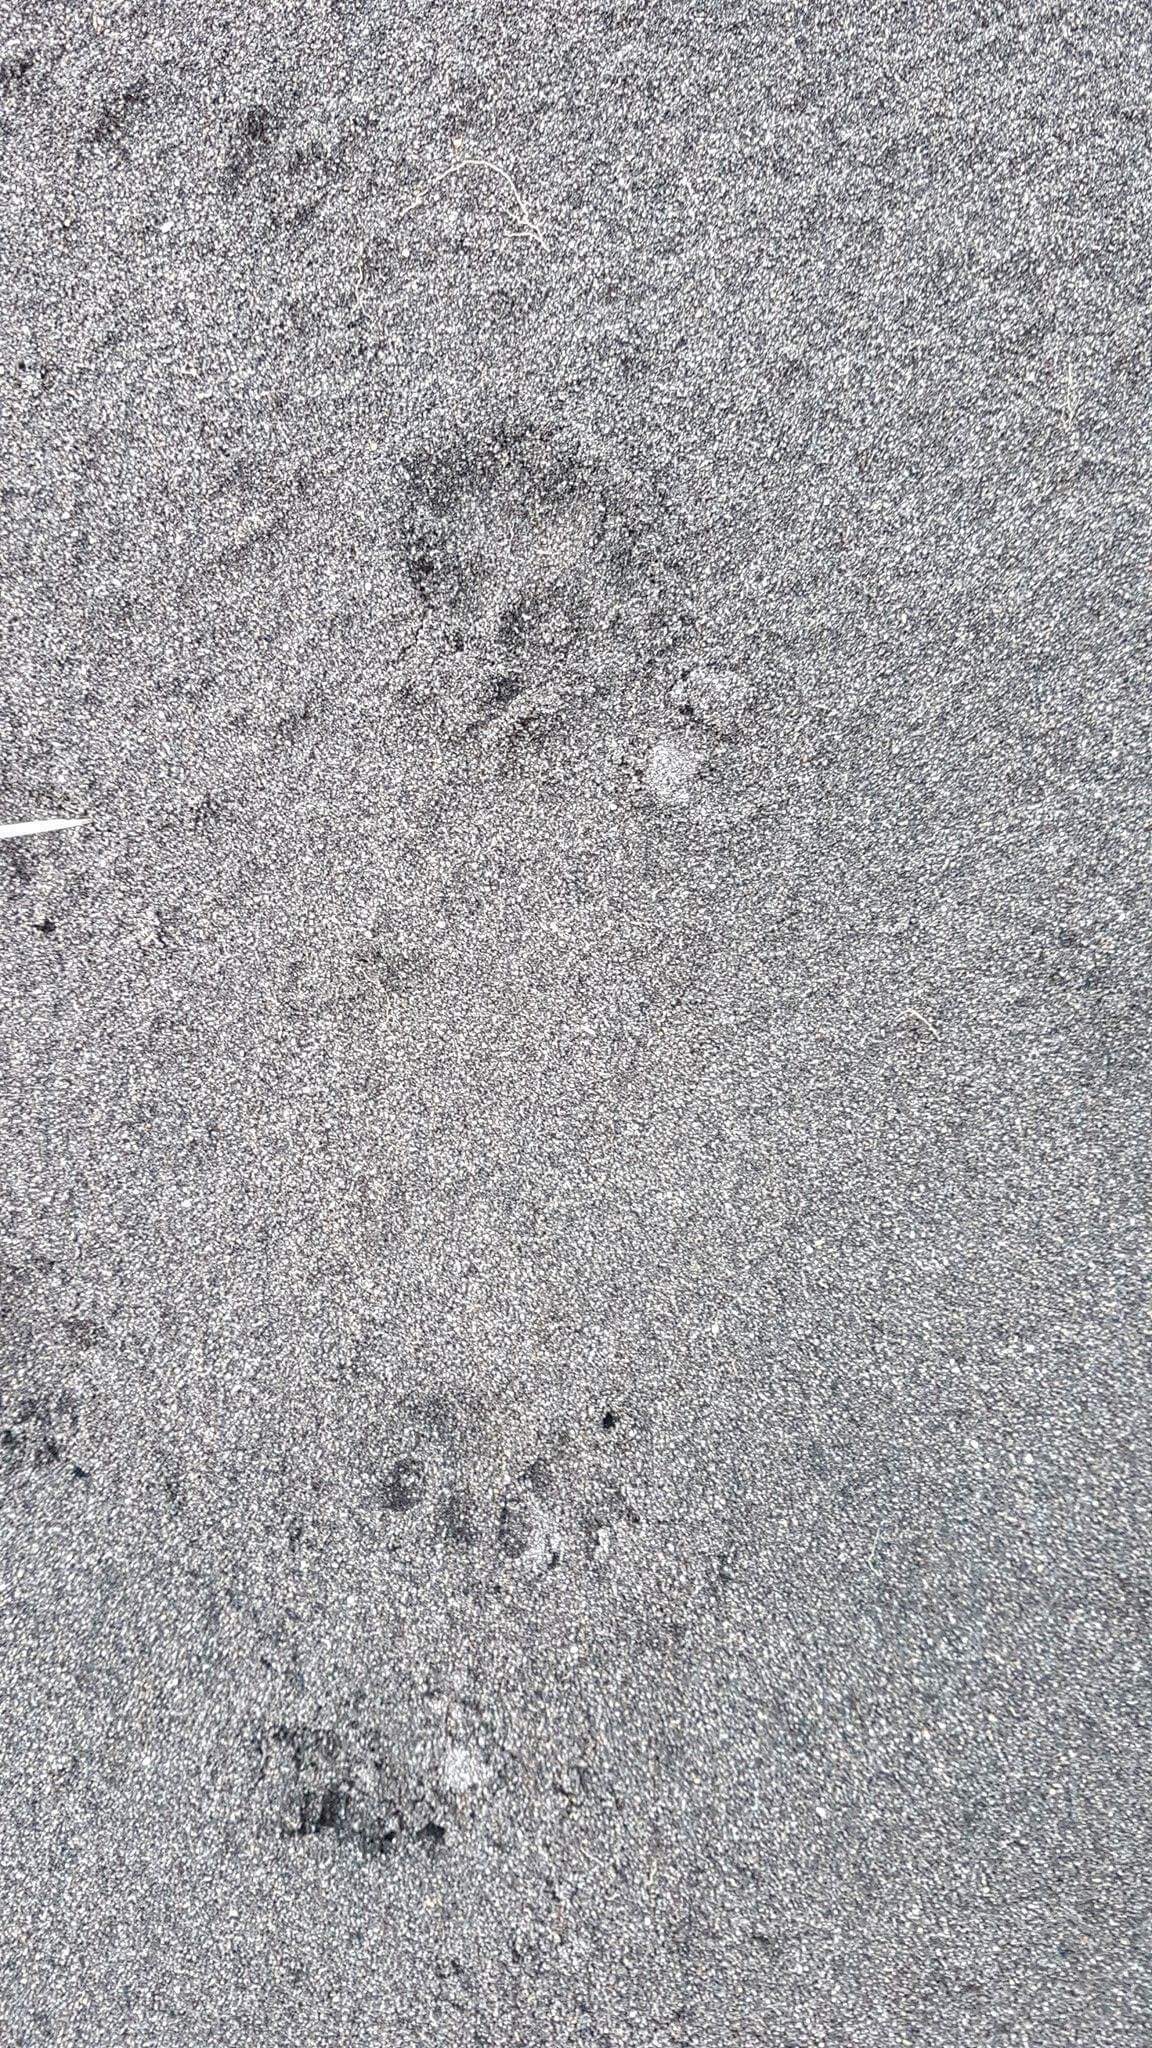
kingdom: Animalia
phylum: Chordata
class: Mammalia
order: Carnivora
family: Felidae
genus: Felis
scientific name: Felis catus
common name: Domestic cat
